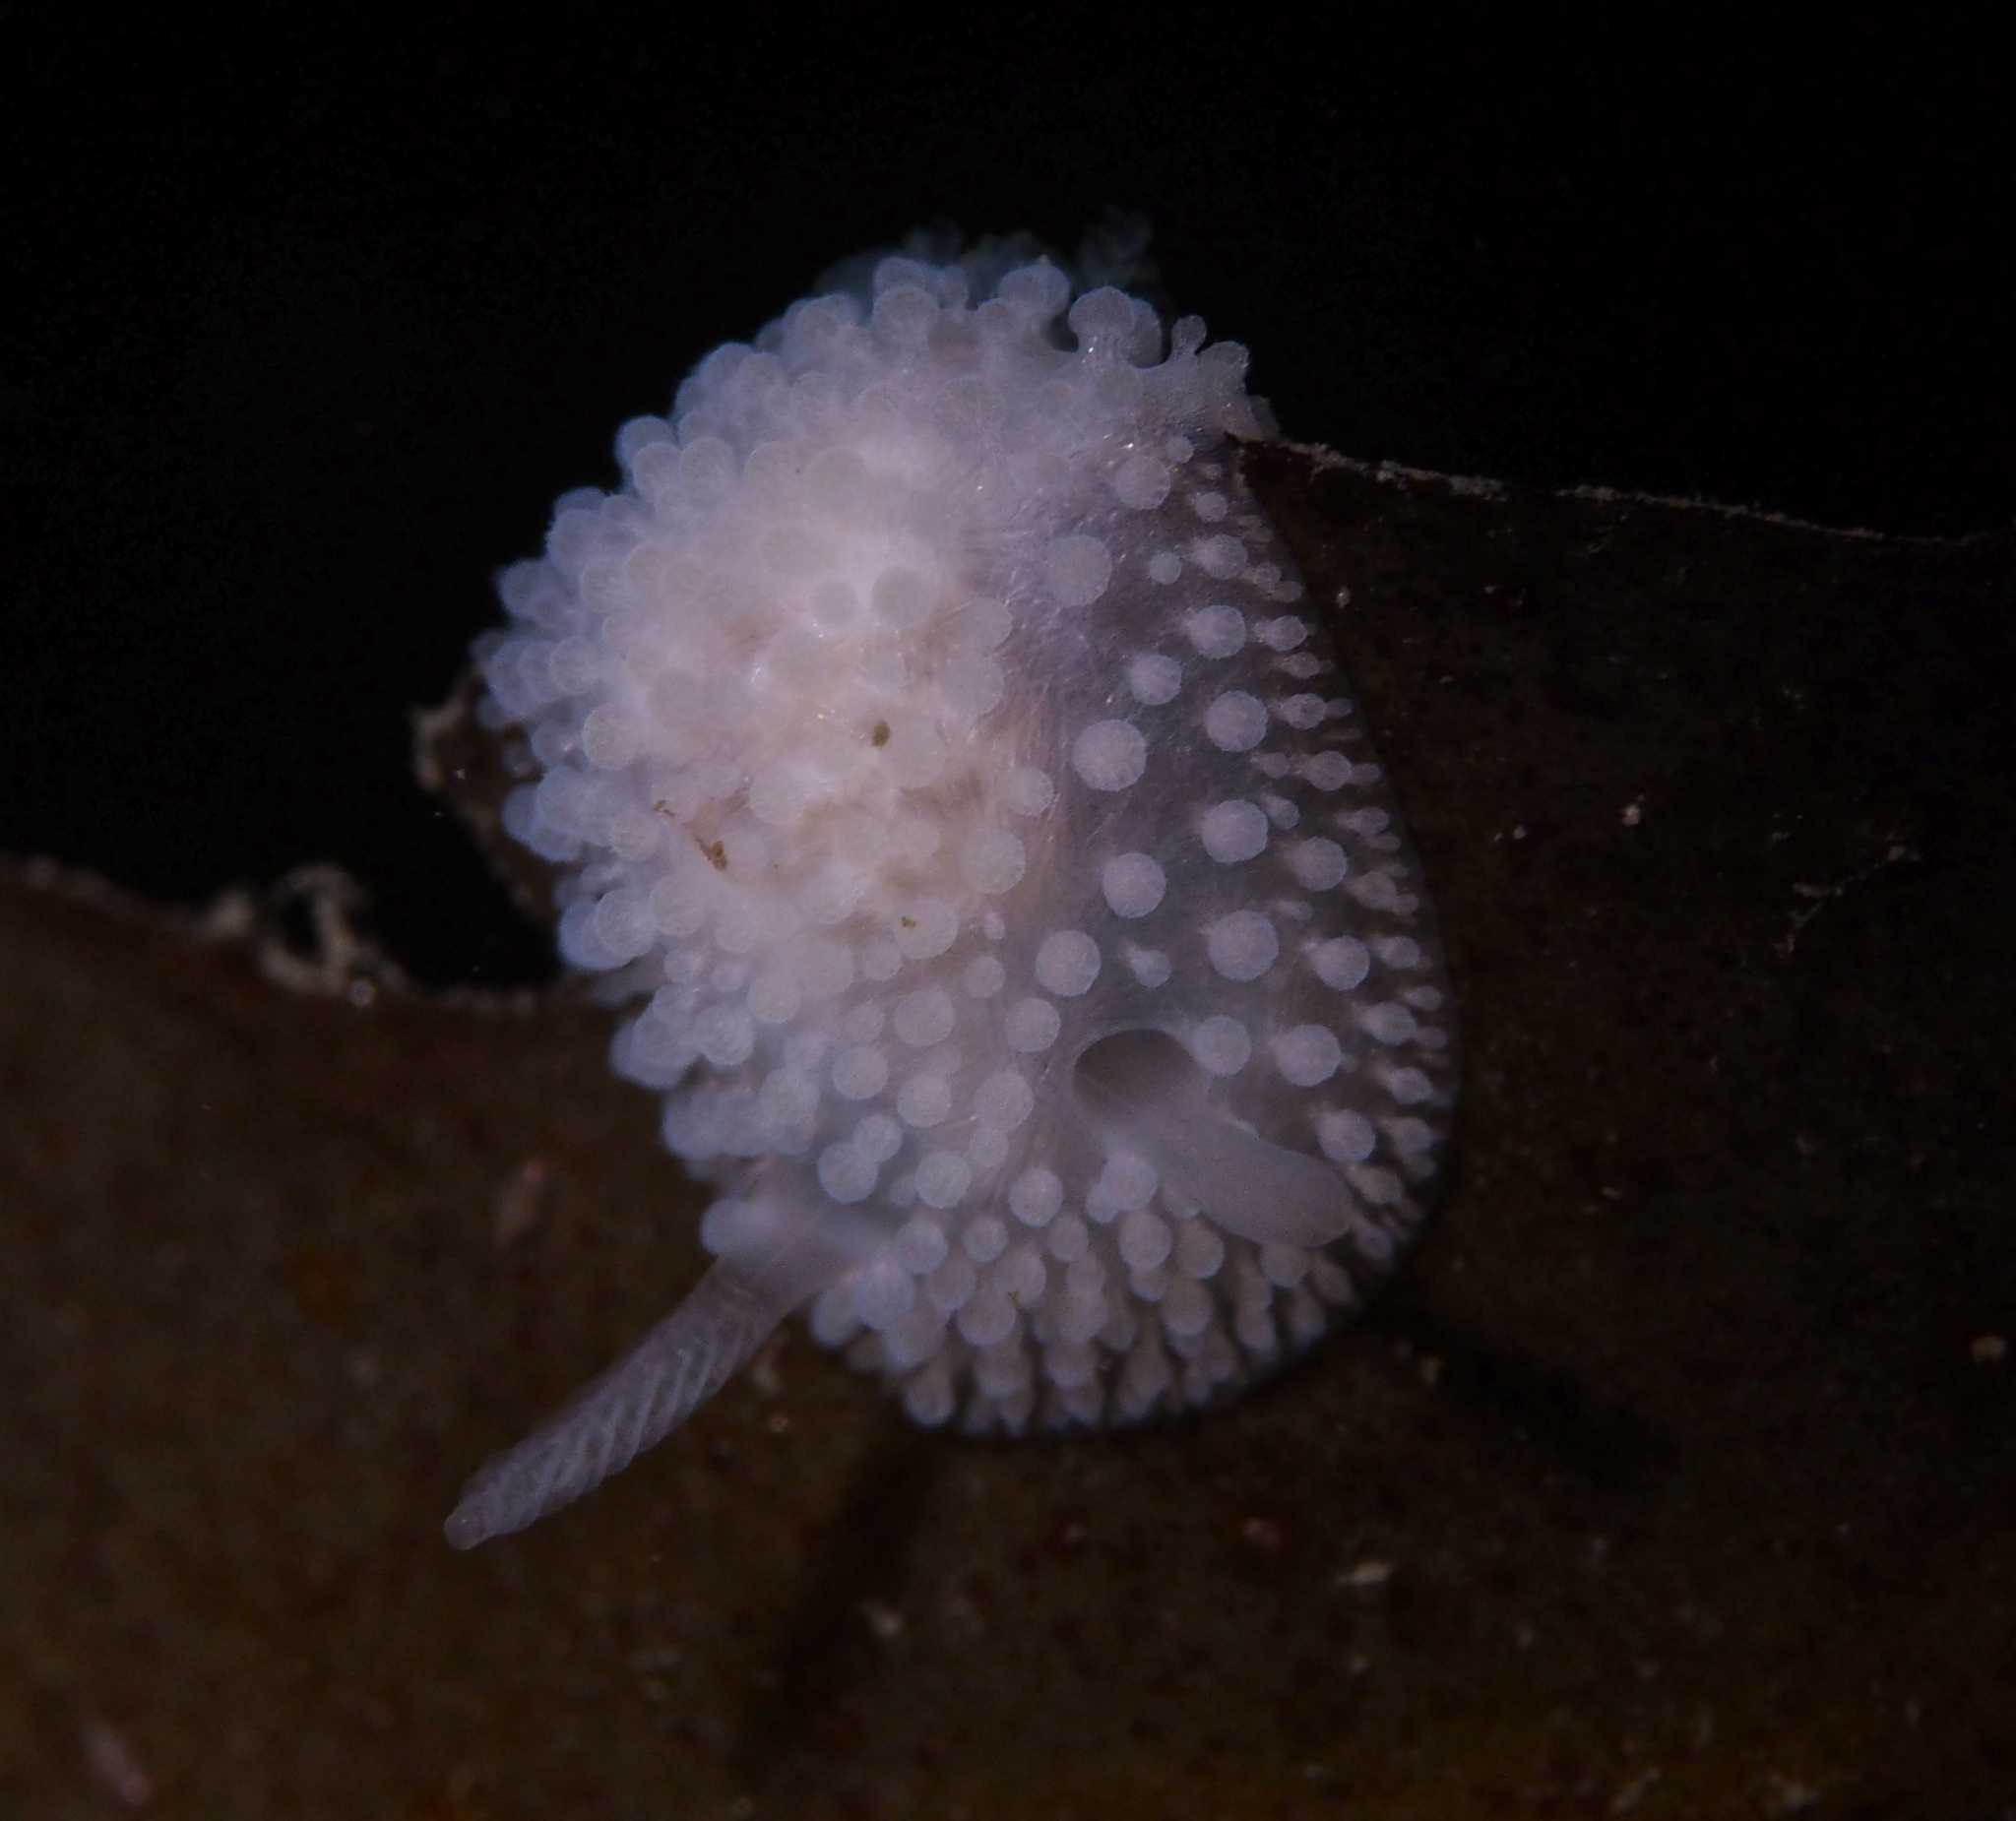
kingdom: Animalia
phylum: Mollusca
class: Gastropoda
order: Nudibranchia
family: Onchidorididae
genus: Onchidoris
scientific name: Onchidoris muricata
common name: Rough doris
